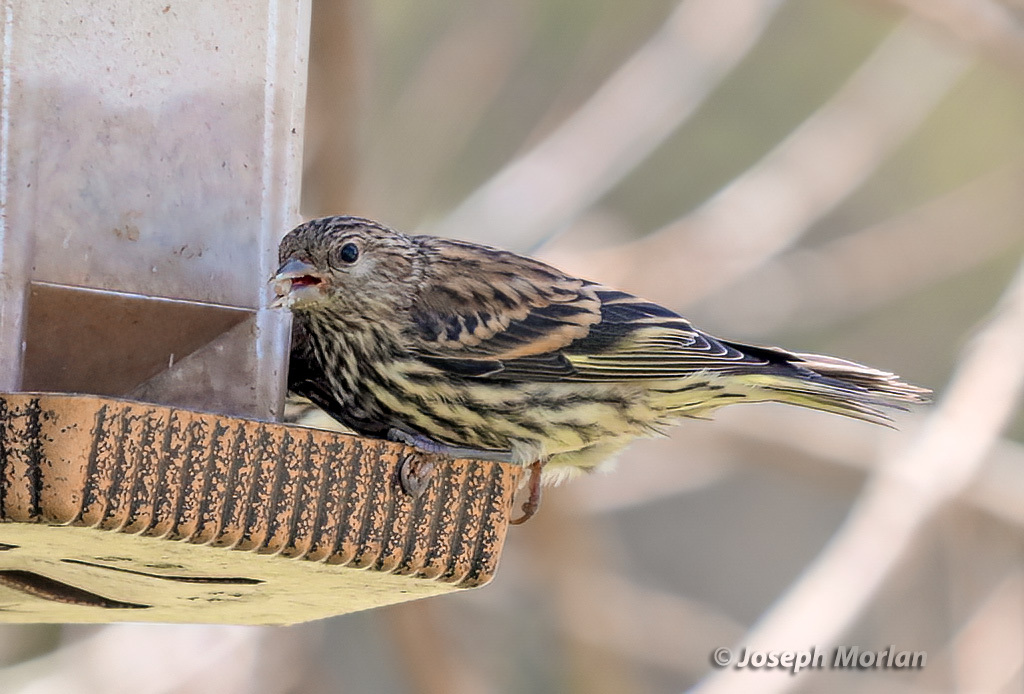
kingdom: Animalia
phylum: Chordata
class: Aves
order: Passeriformes
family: Fringillidae
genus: Spinus
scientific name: Spinus pinus
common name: Pine siskin
